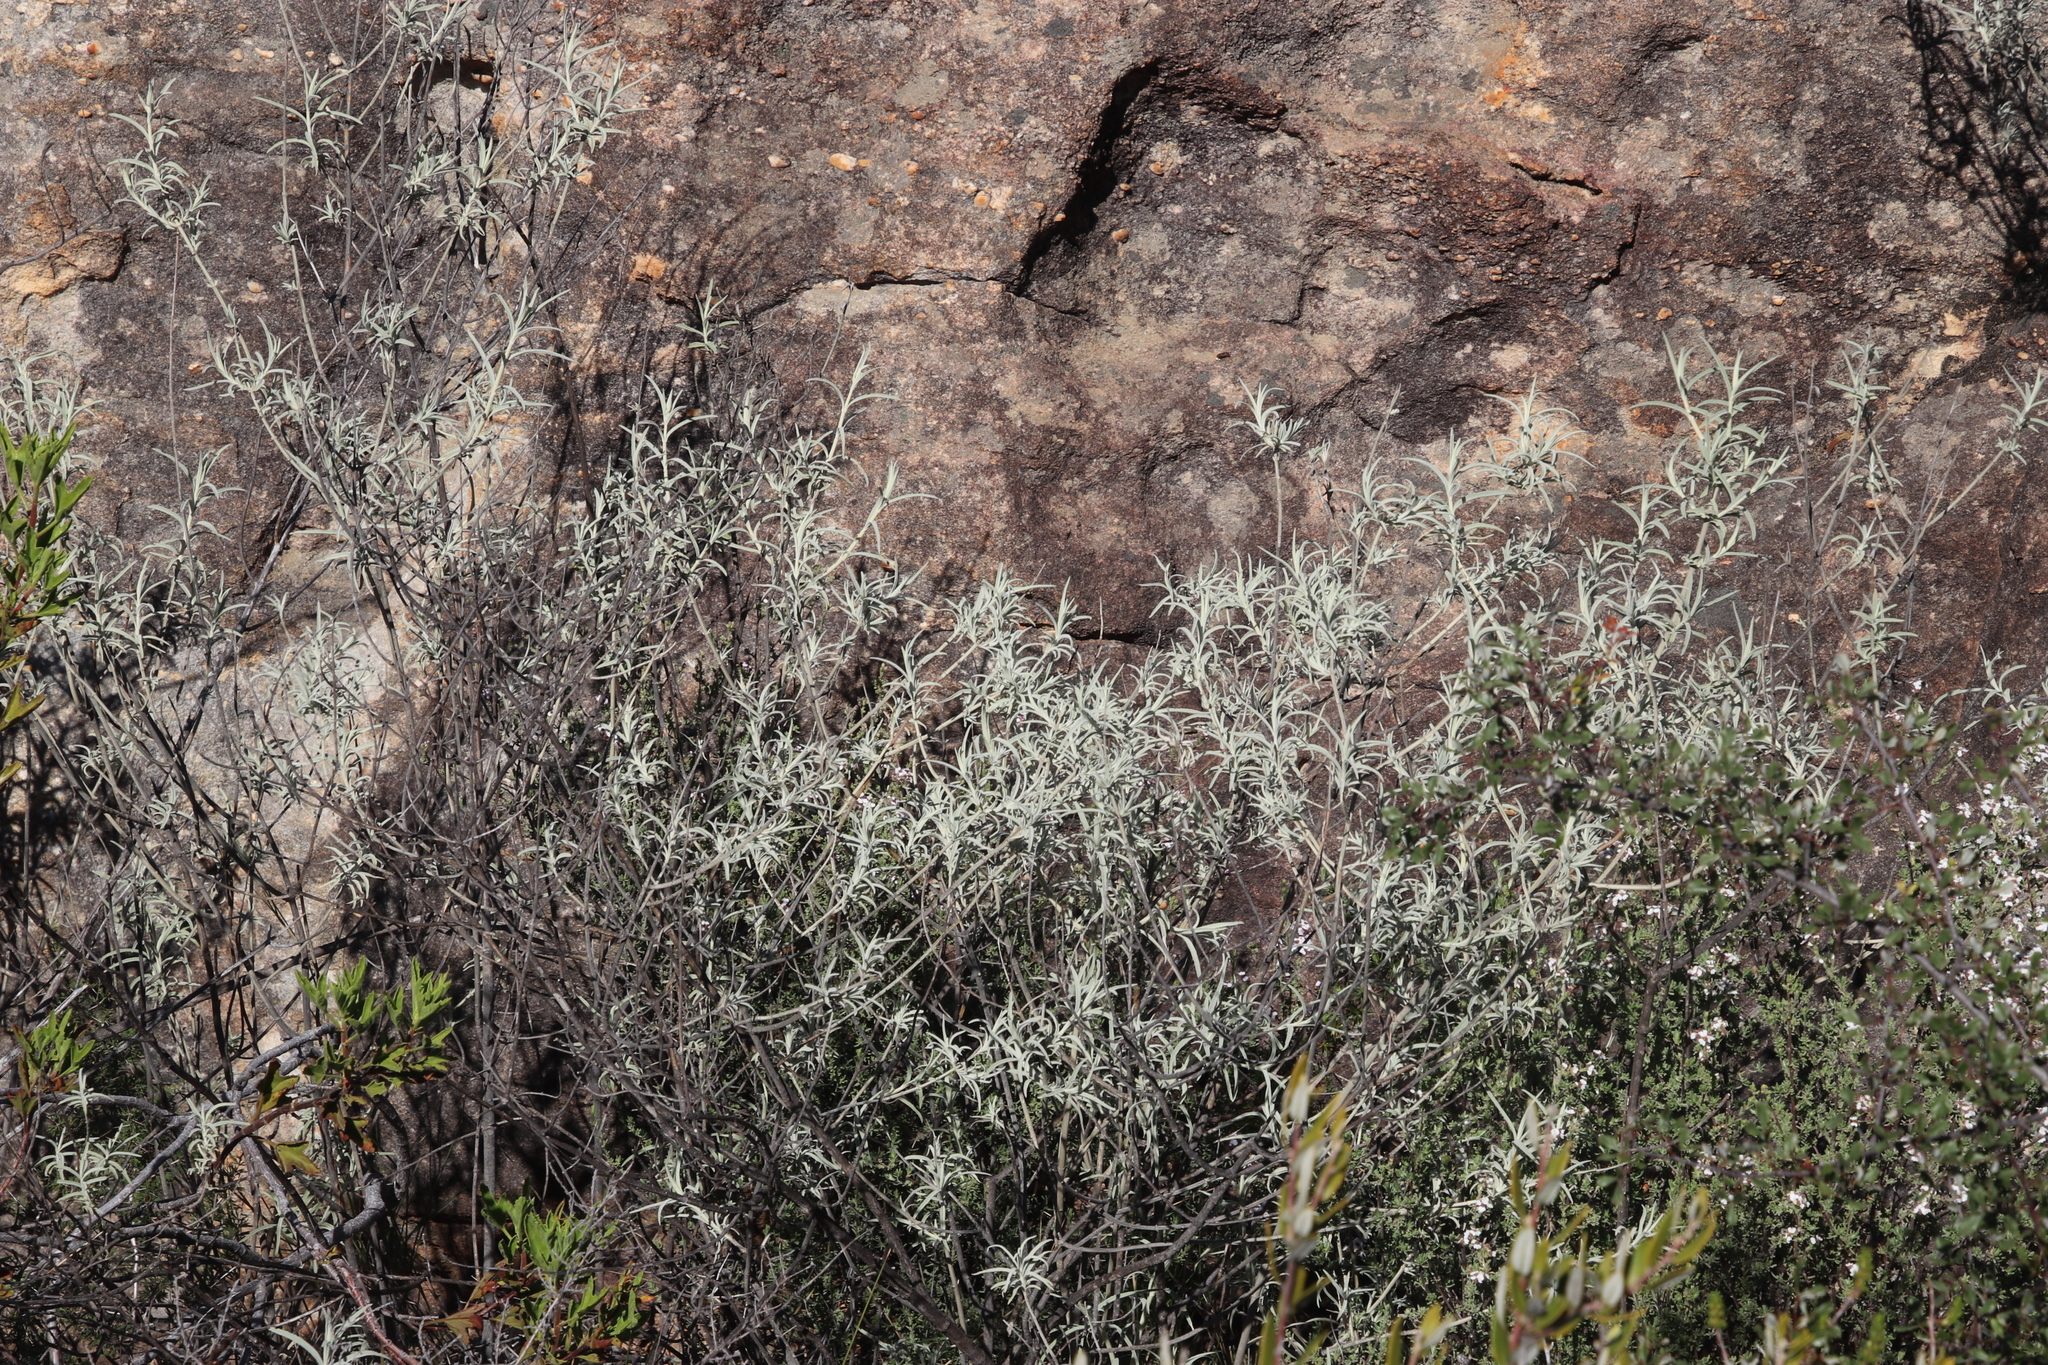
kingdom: Plantae
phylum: Tracheophyta
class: Magnoliopsida
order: Lamiales
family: Lamiaceae
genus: Stachys
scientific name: Stachys rugosa
